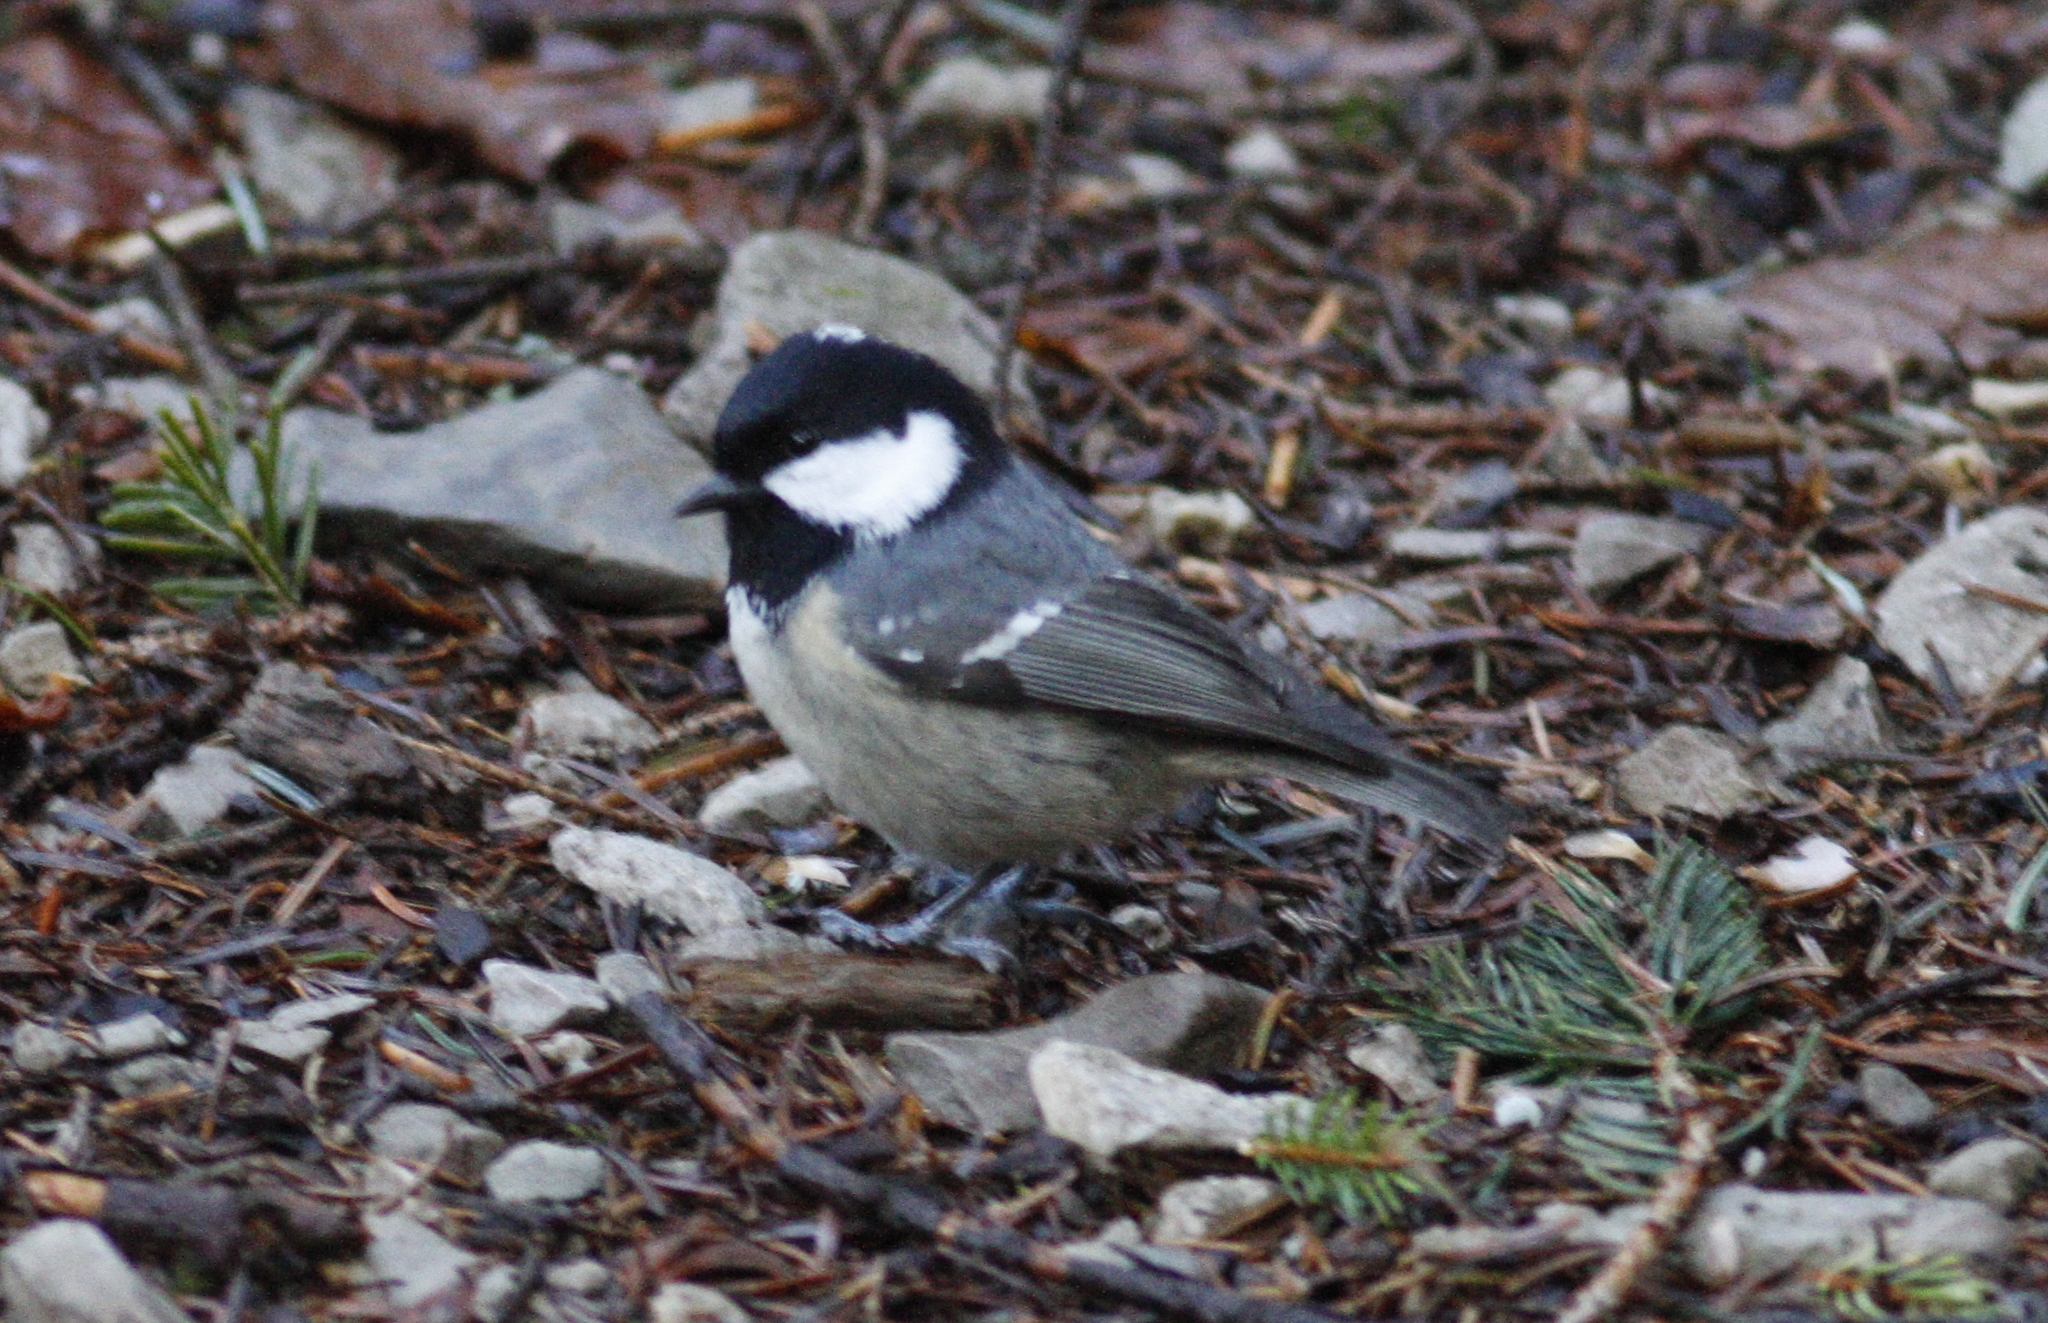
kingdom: Animalia
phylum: Chordata
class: Aves
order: Passeriformes
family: Paridae
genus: Periparus
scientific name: Periparus ater
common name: Coal tit
